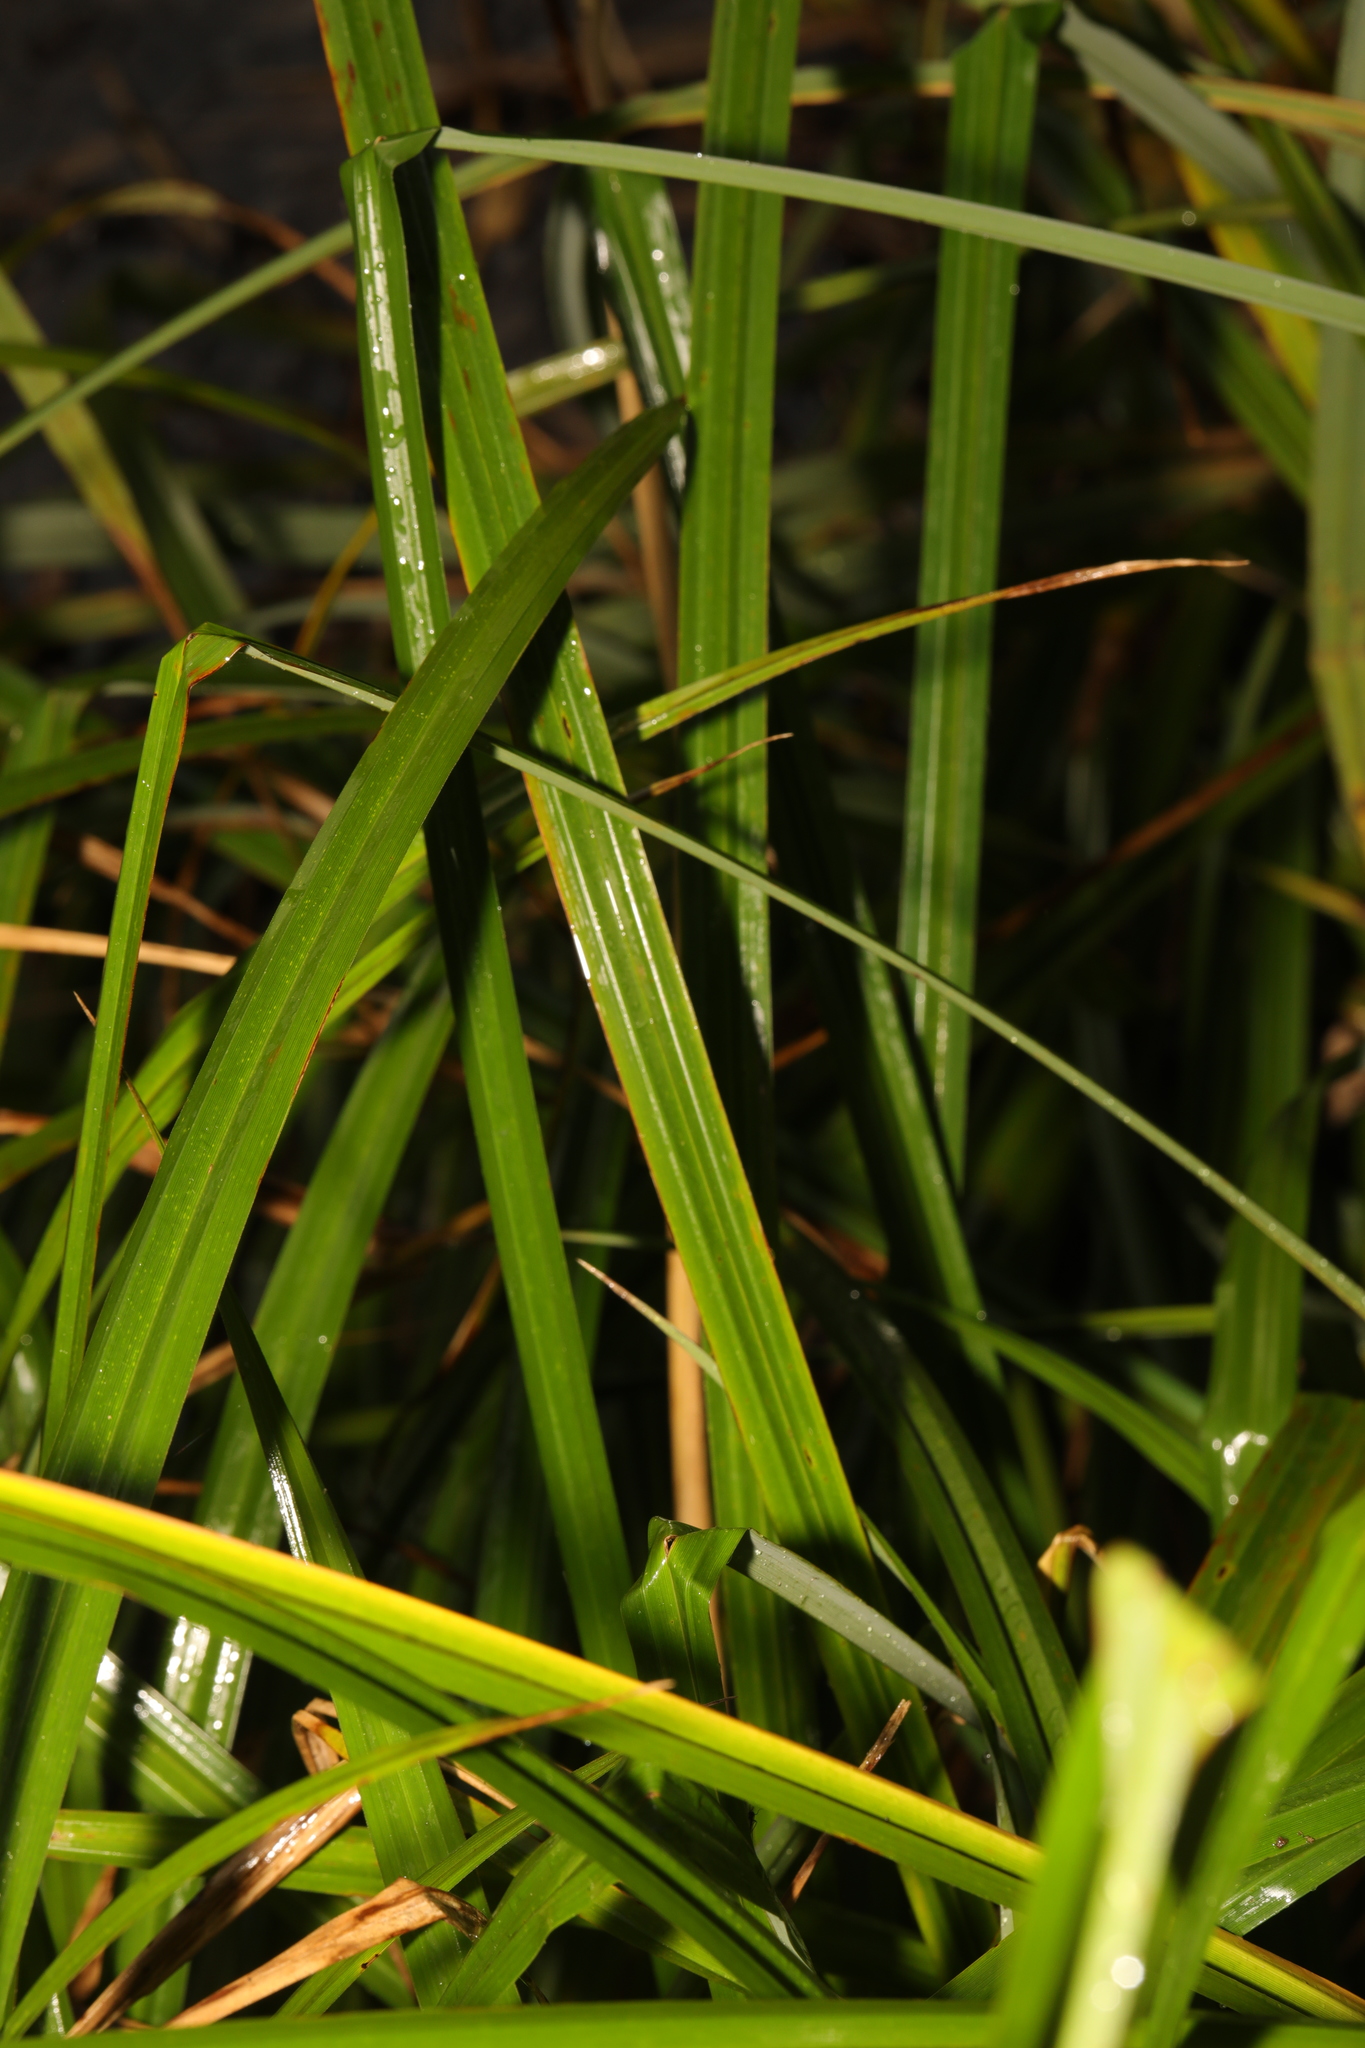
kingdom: Plantae
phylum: Tracheophyta
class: Liliopsida
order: Poales
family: Cyperaceae
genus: Carex
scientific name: Carex pendula
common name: Pendulous sedge
